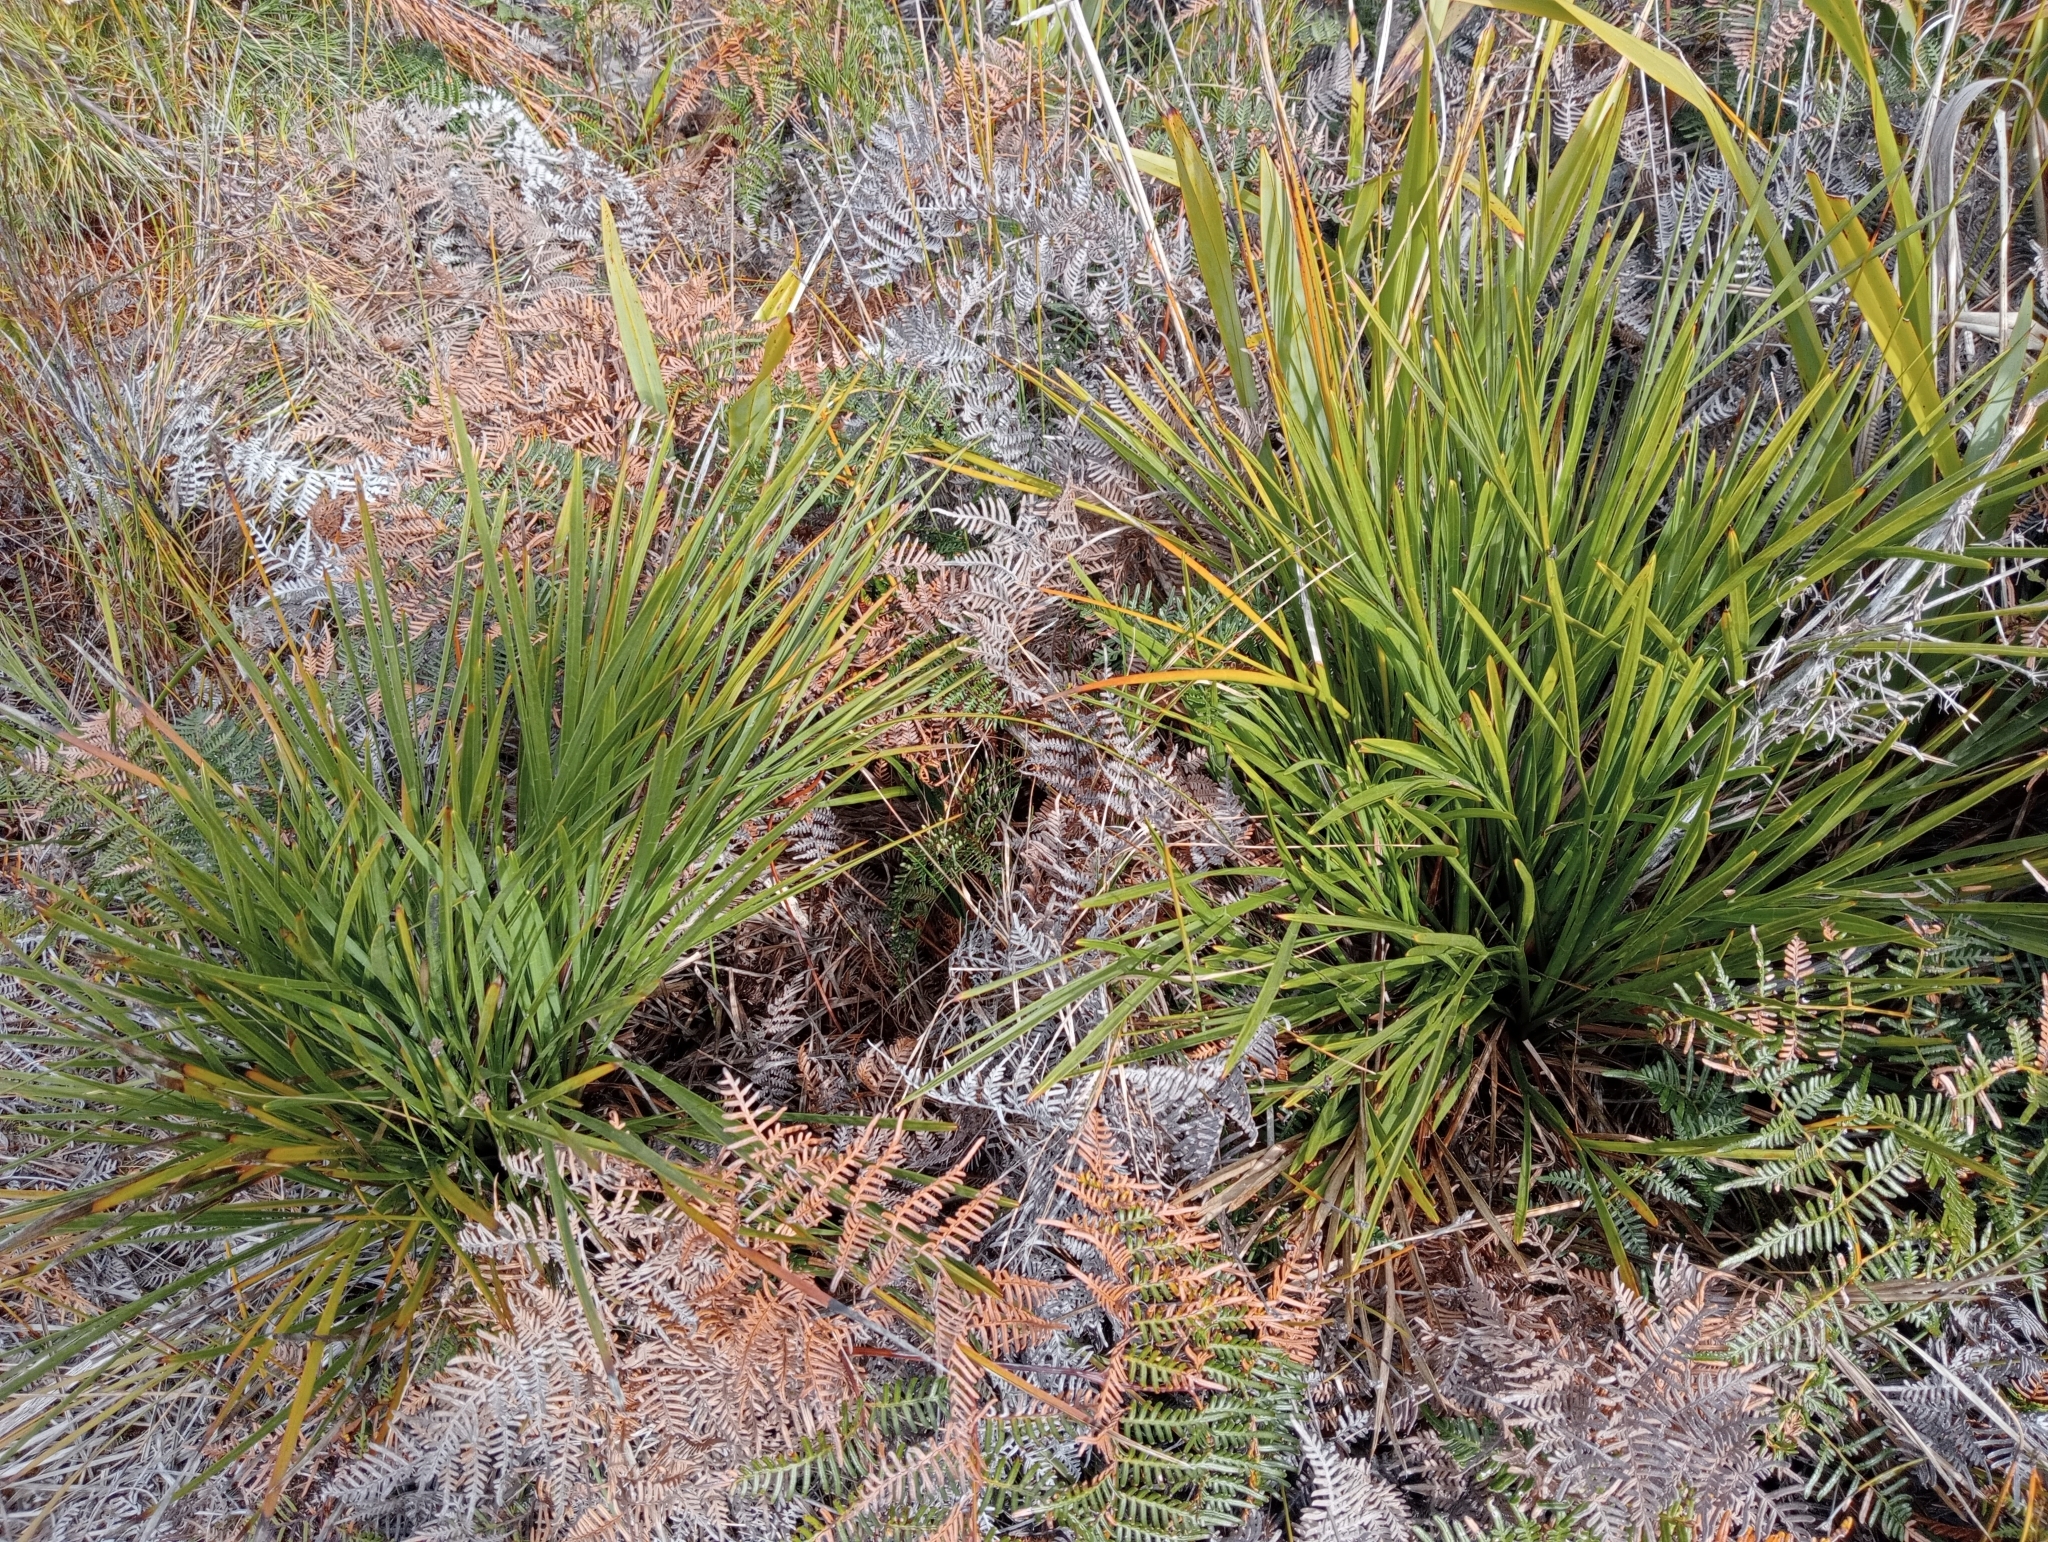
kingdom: Plantae
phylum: Tracheophyta
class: Magnoliopsida
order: Apiales
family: Apiaceae
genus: Aciphylla
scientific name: Aciphylla traversii
